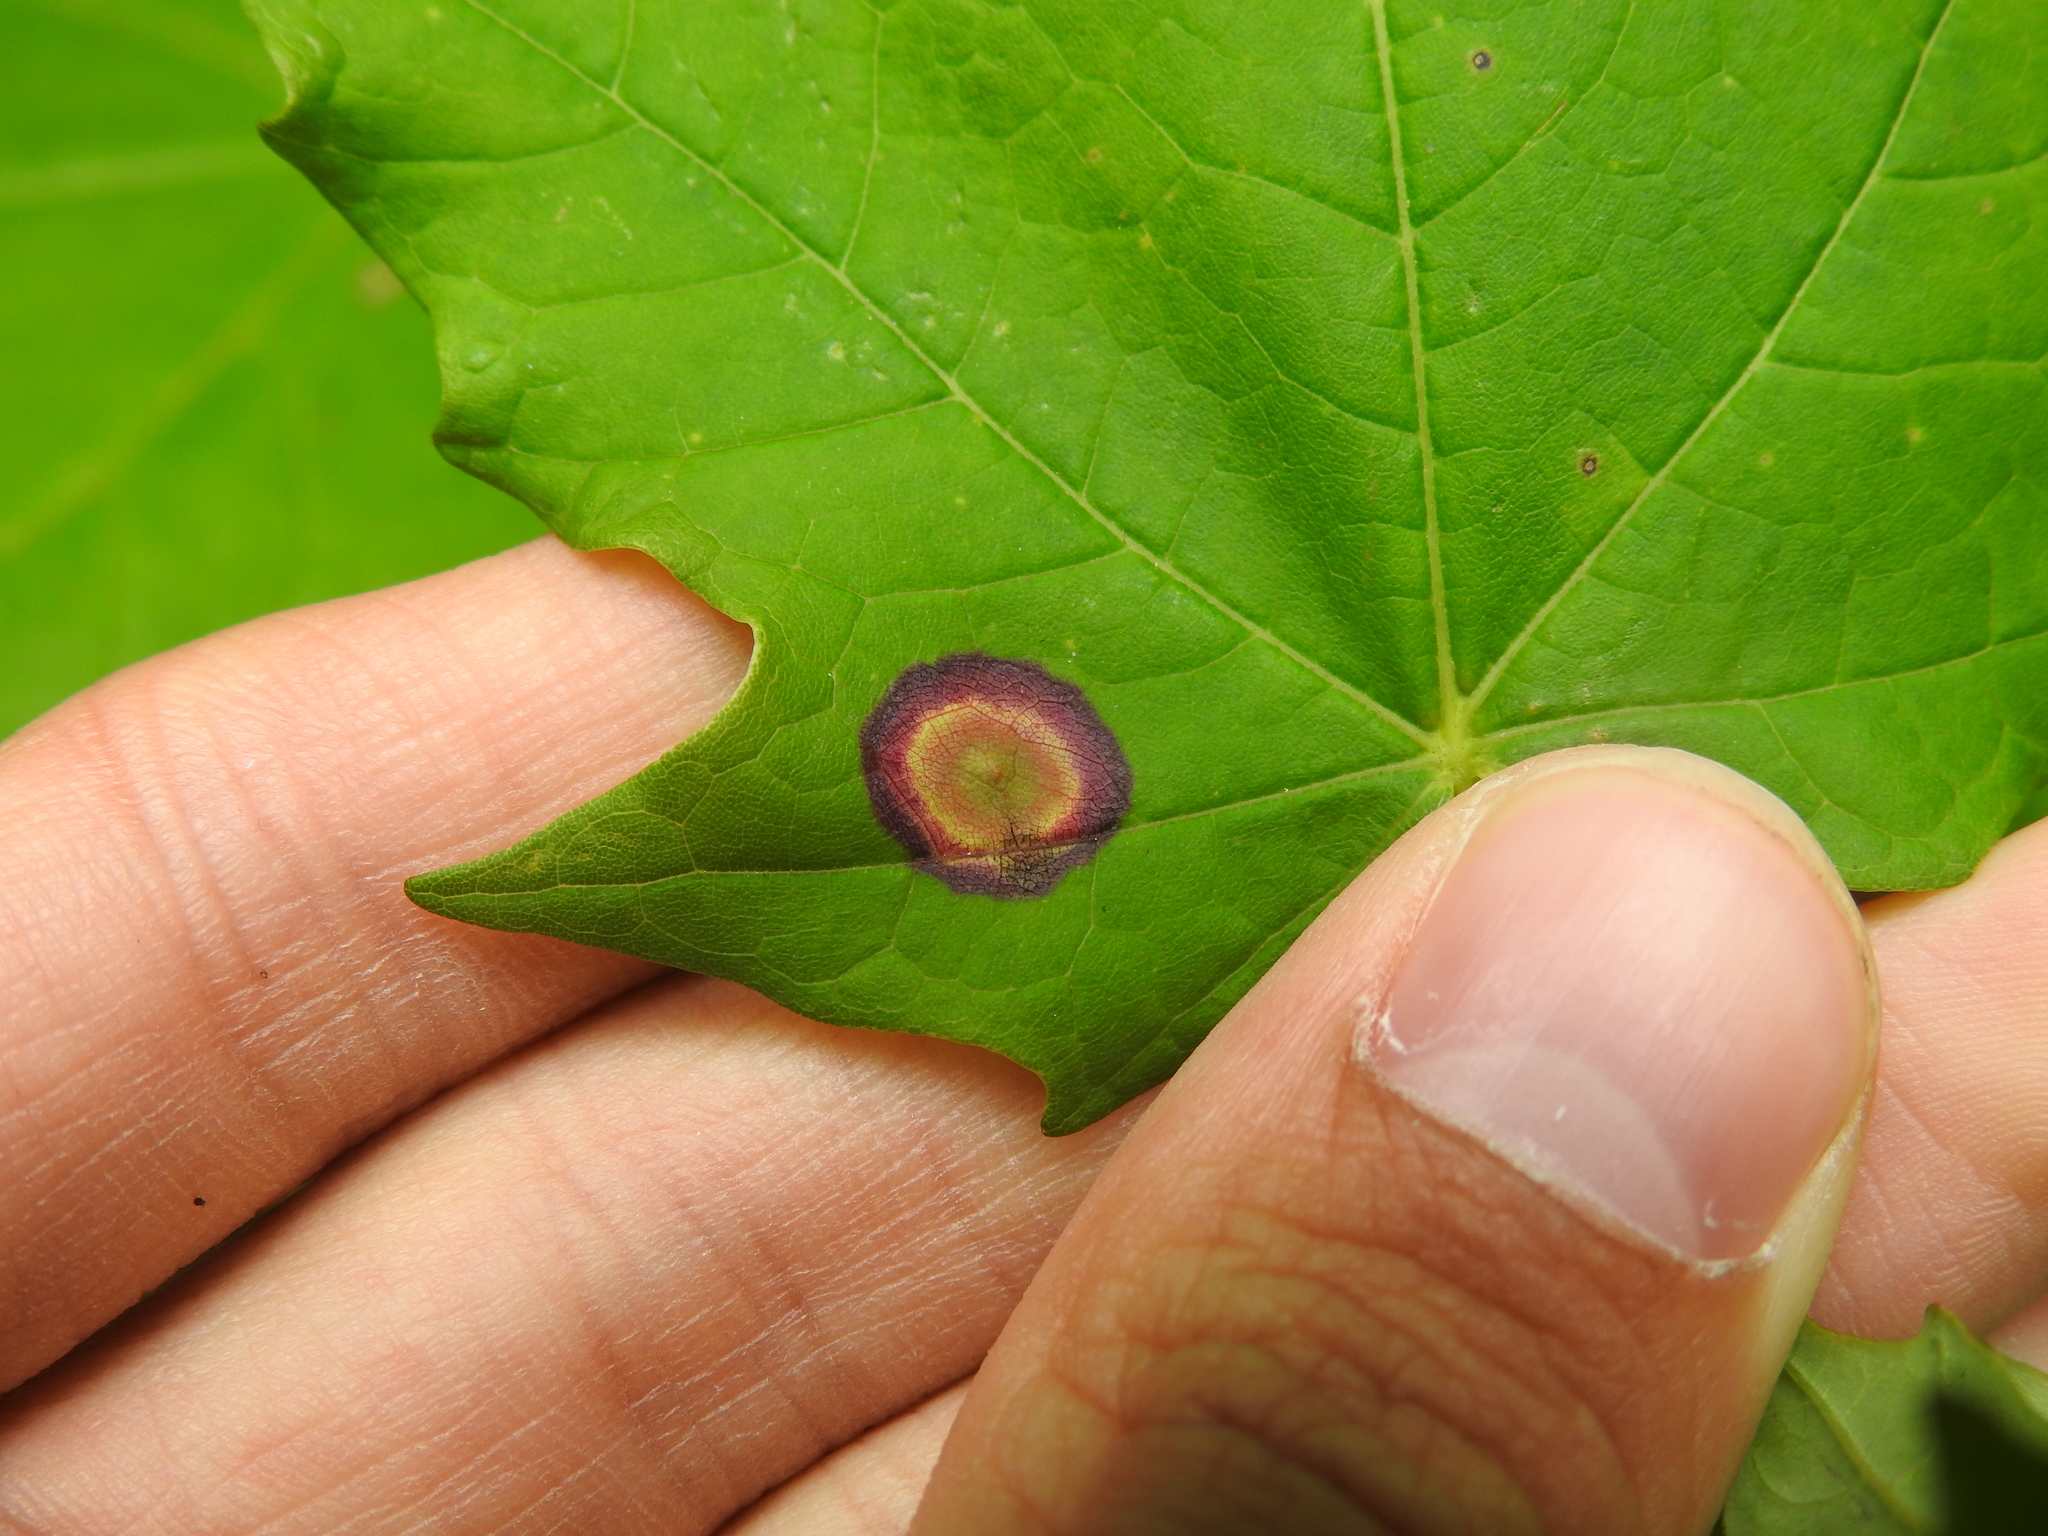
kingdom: Animalia
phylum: Arthropoda
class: Insecta
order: Diptera
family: Cecidomyiidae
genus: Acericecis
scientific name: Acericecis ocellaris
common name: Ocellate gall midge
